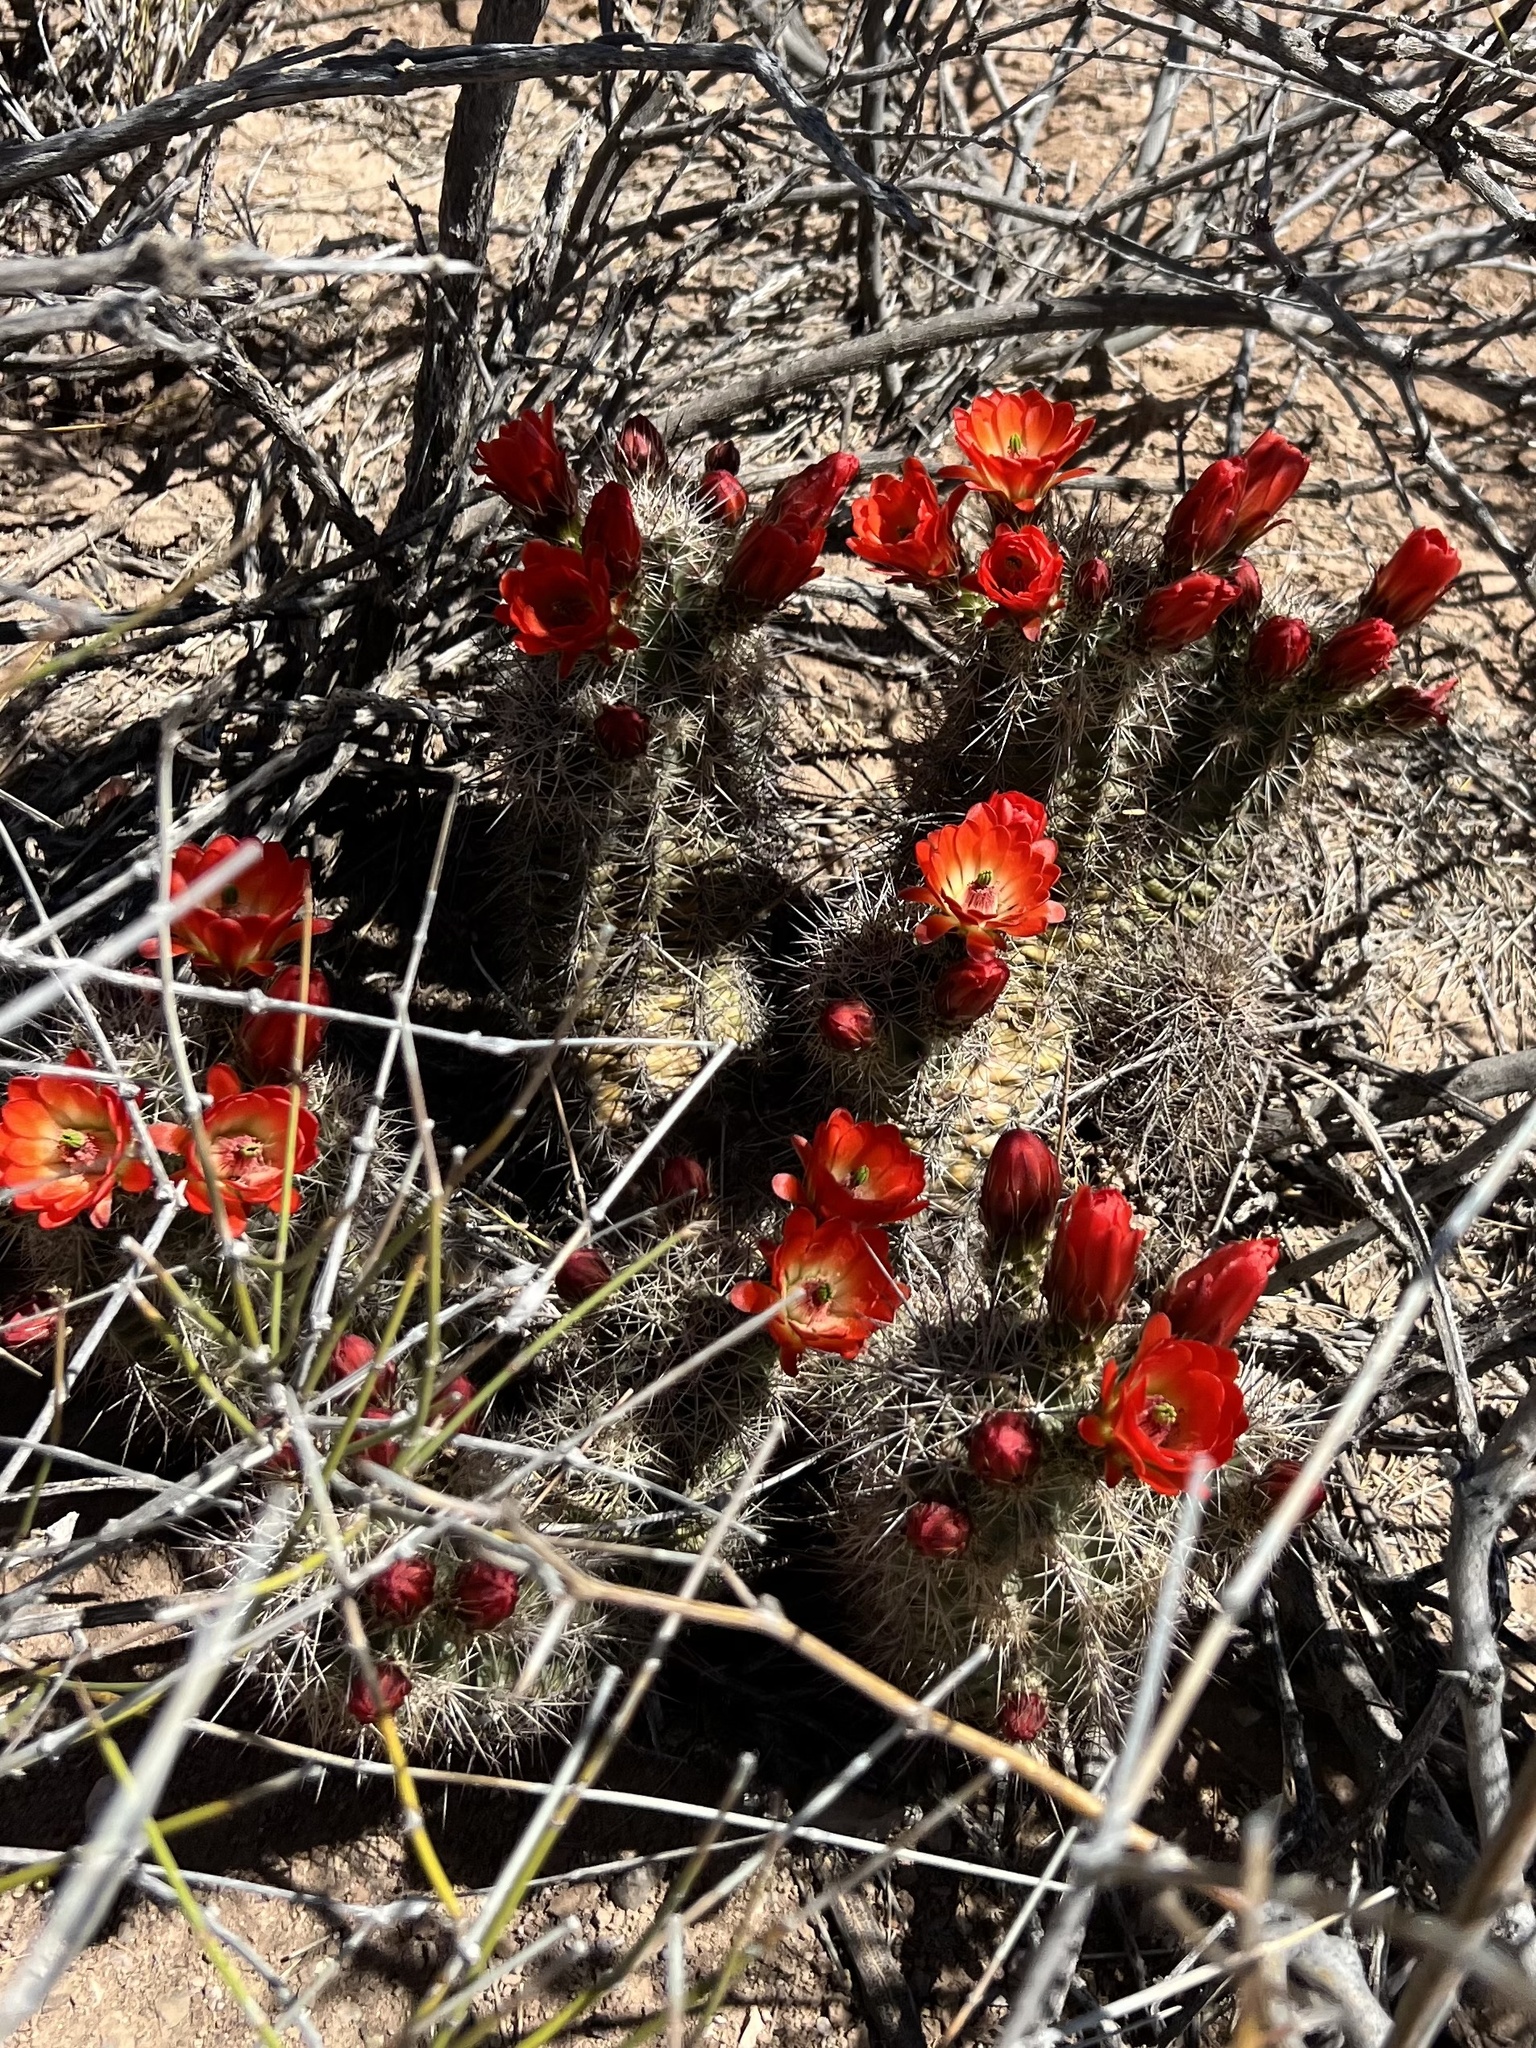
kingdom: Plantae
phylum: Tracheophyta
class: Magnoliopsida
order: Caryophyllales
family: Cactaceae
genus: Echinocereus
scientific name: Echinocereus coccineus
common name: Scarlet hedgehog cactus
